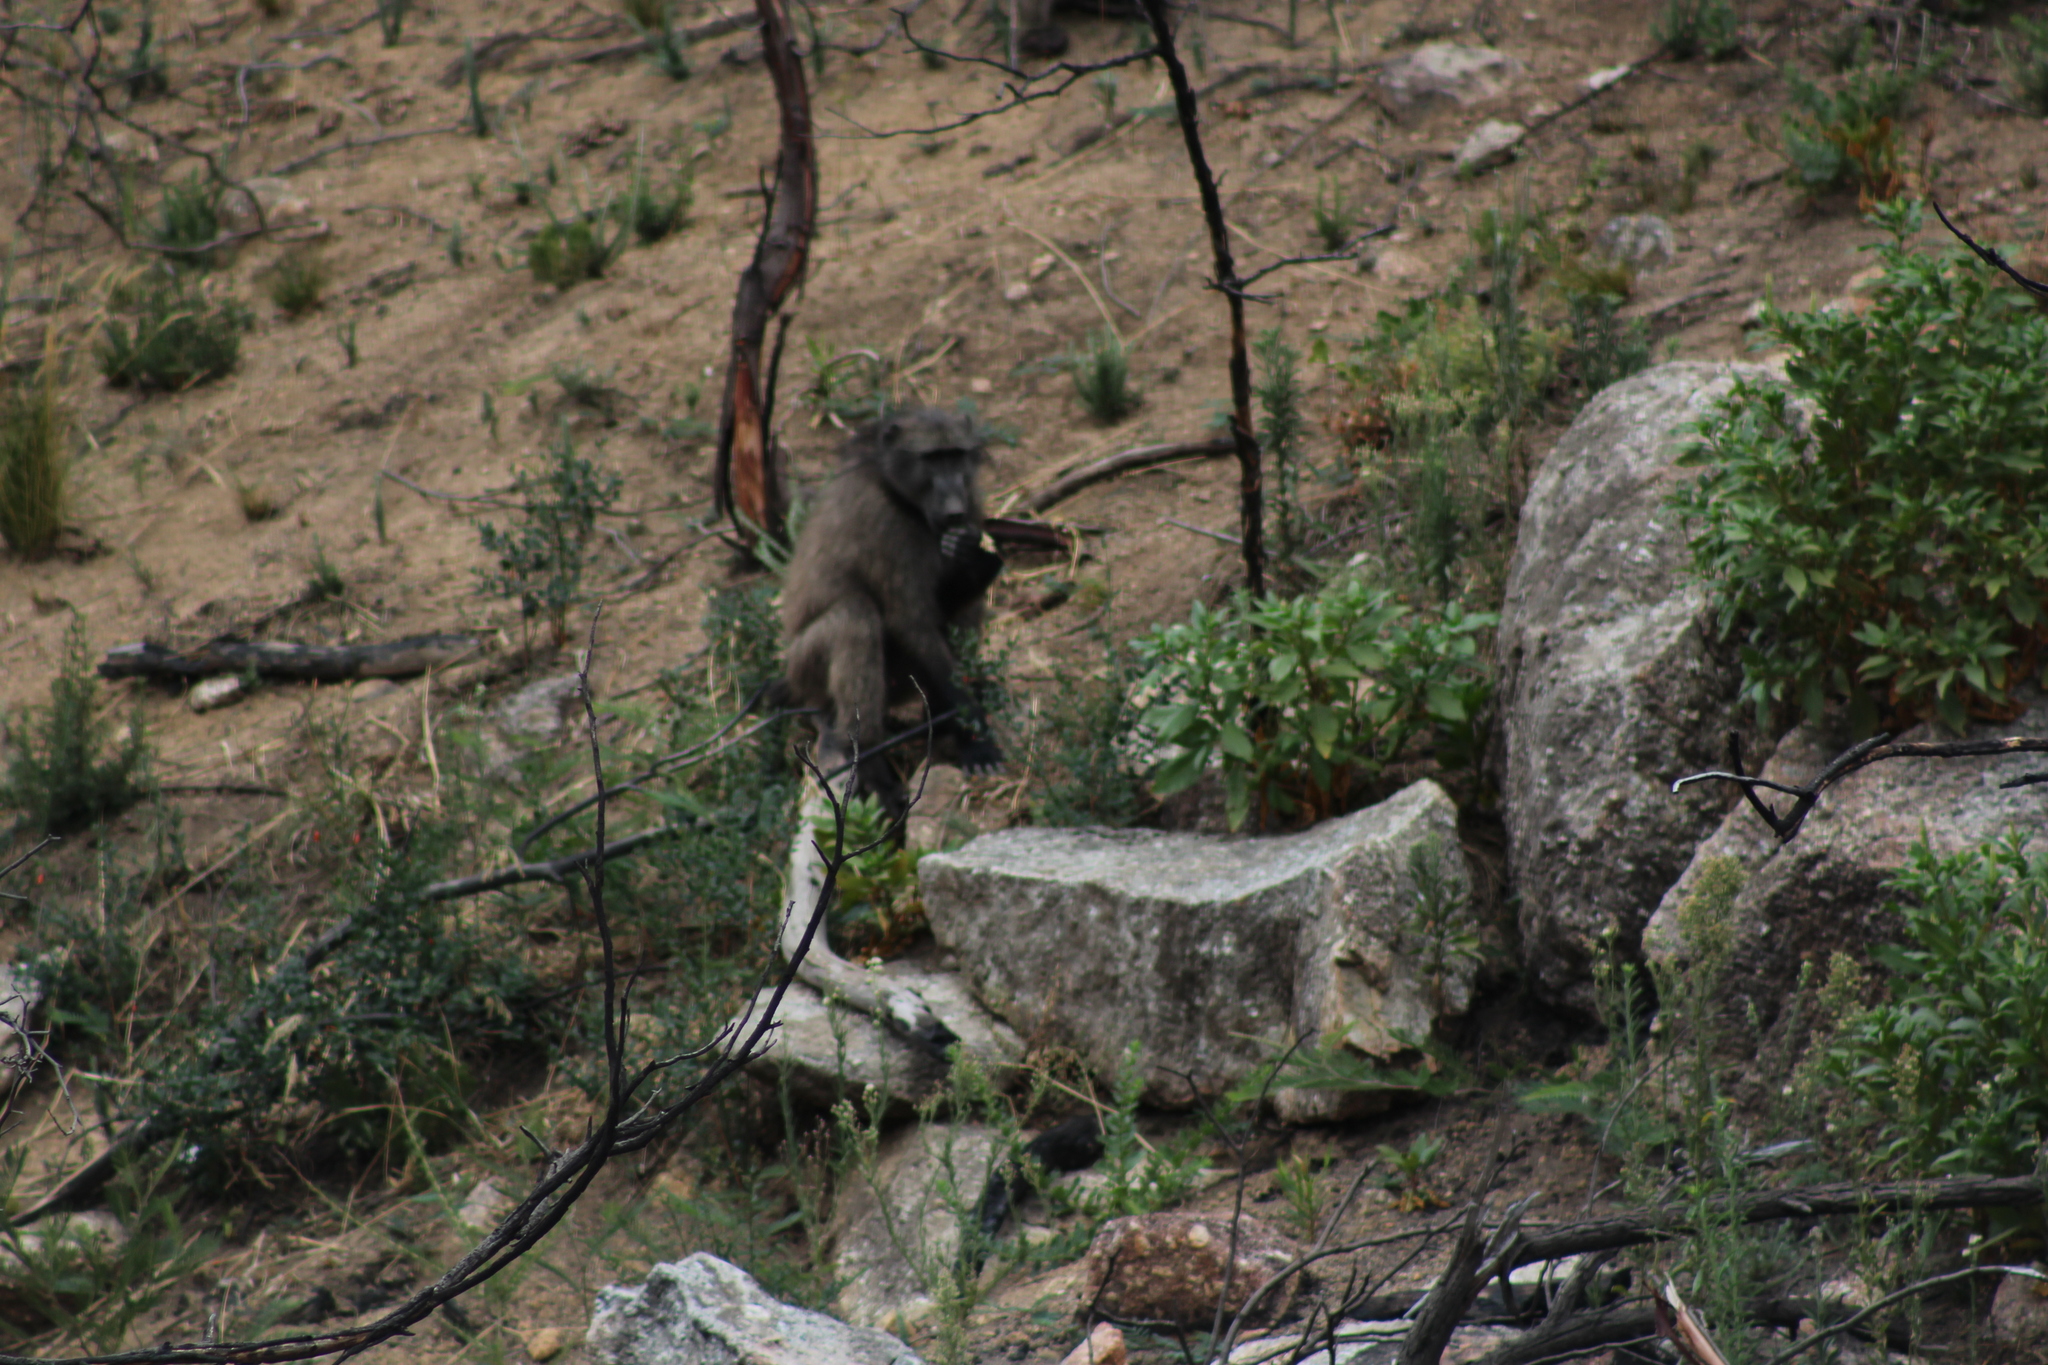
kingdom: Animalia
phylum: Chordata
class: Mammalia
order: Primates
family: Cercopithecidae
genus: Papio
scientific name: Papio ursinus
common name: Chacma baboon
